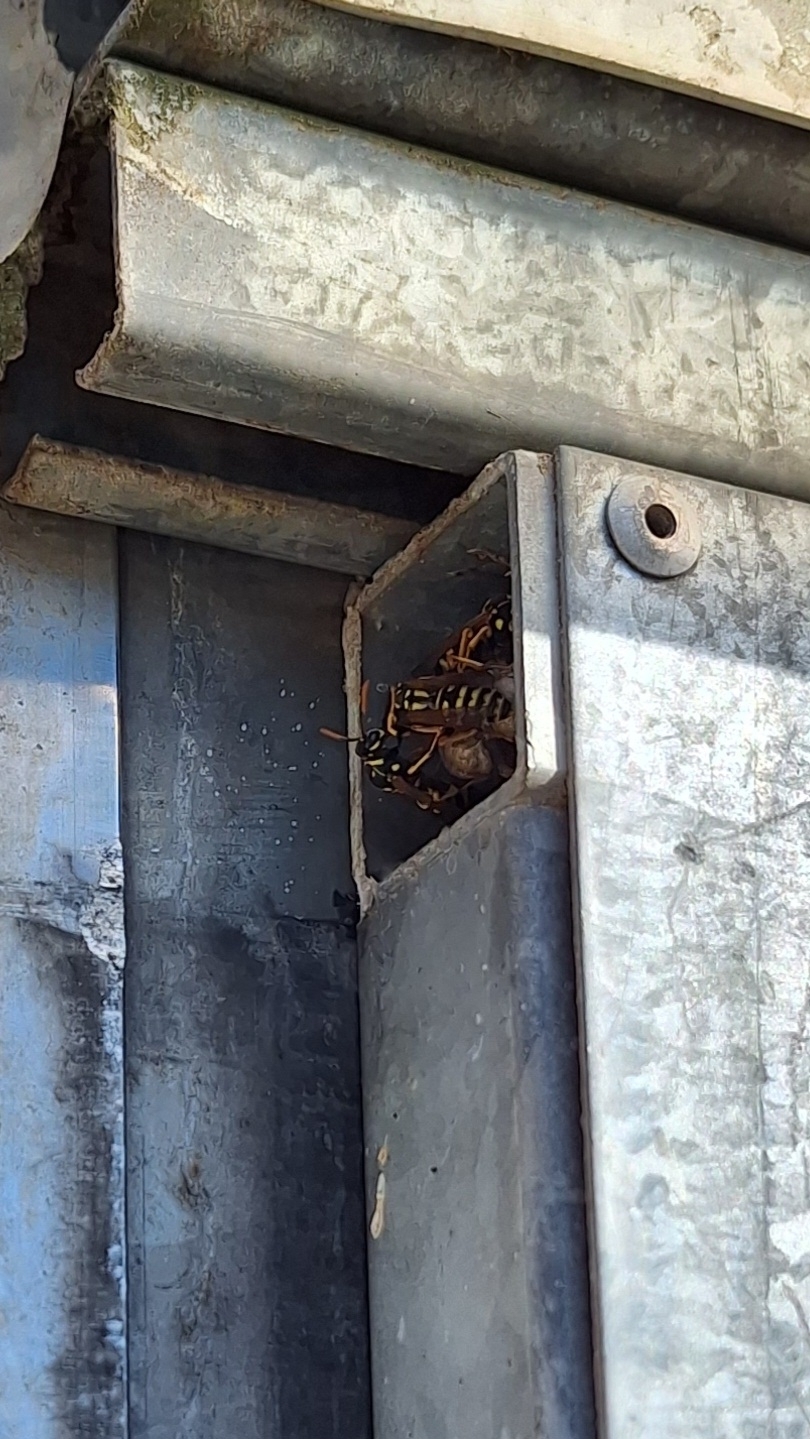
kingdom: Animalia
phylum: Arthropoda
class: Insecta
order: Hymenoptera
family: Eumenidae
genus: Polistes
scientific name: Polistes dominula
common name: Paper wasp
